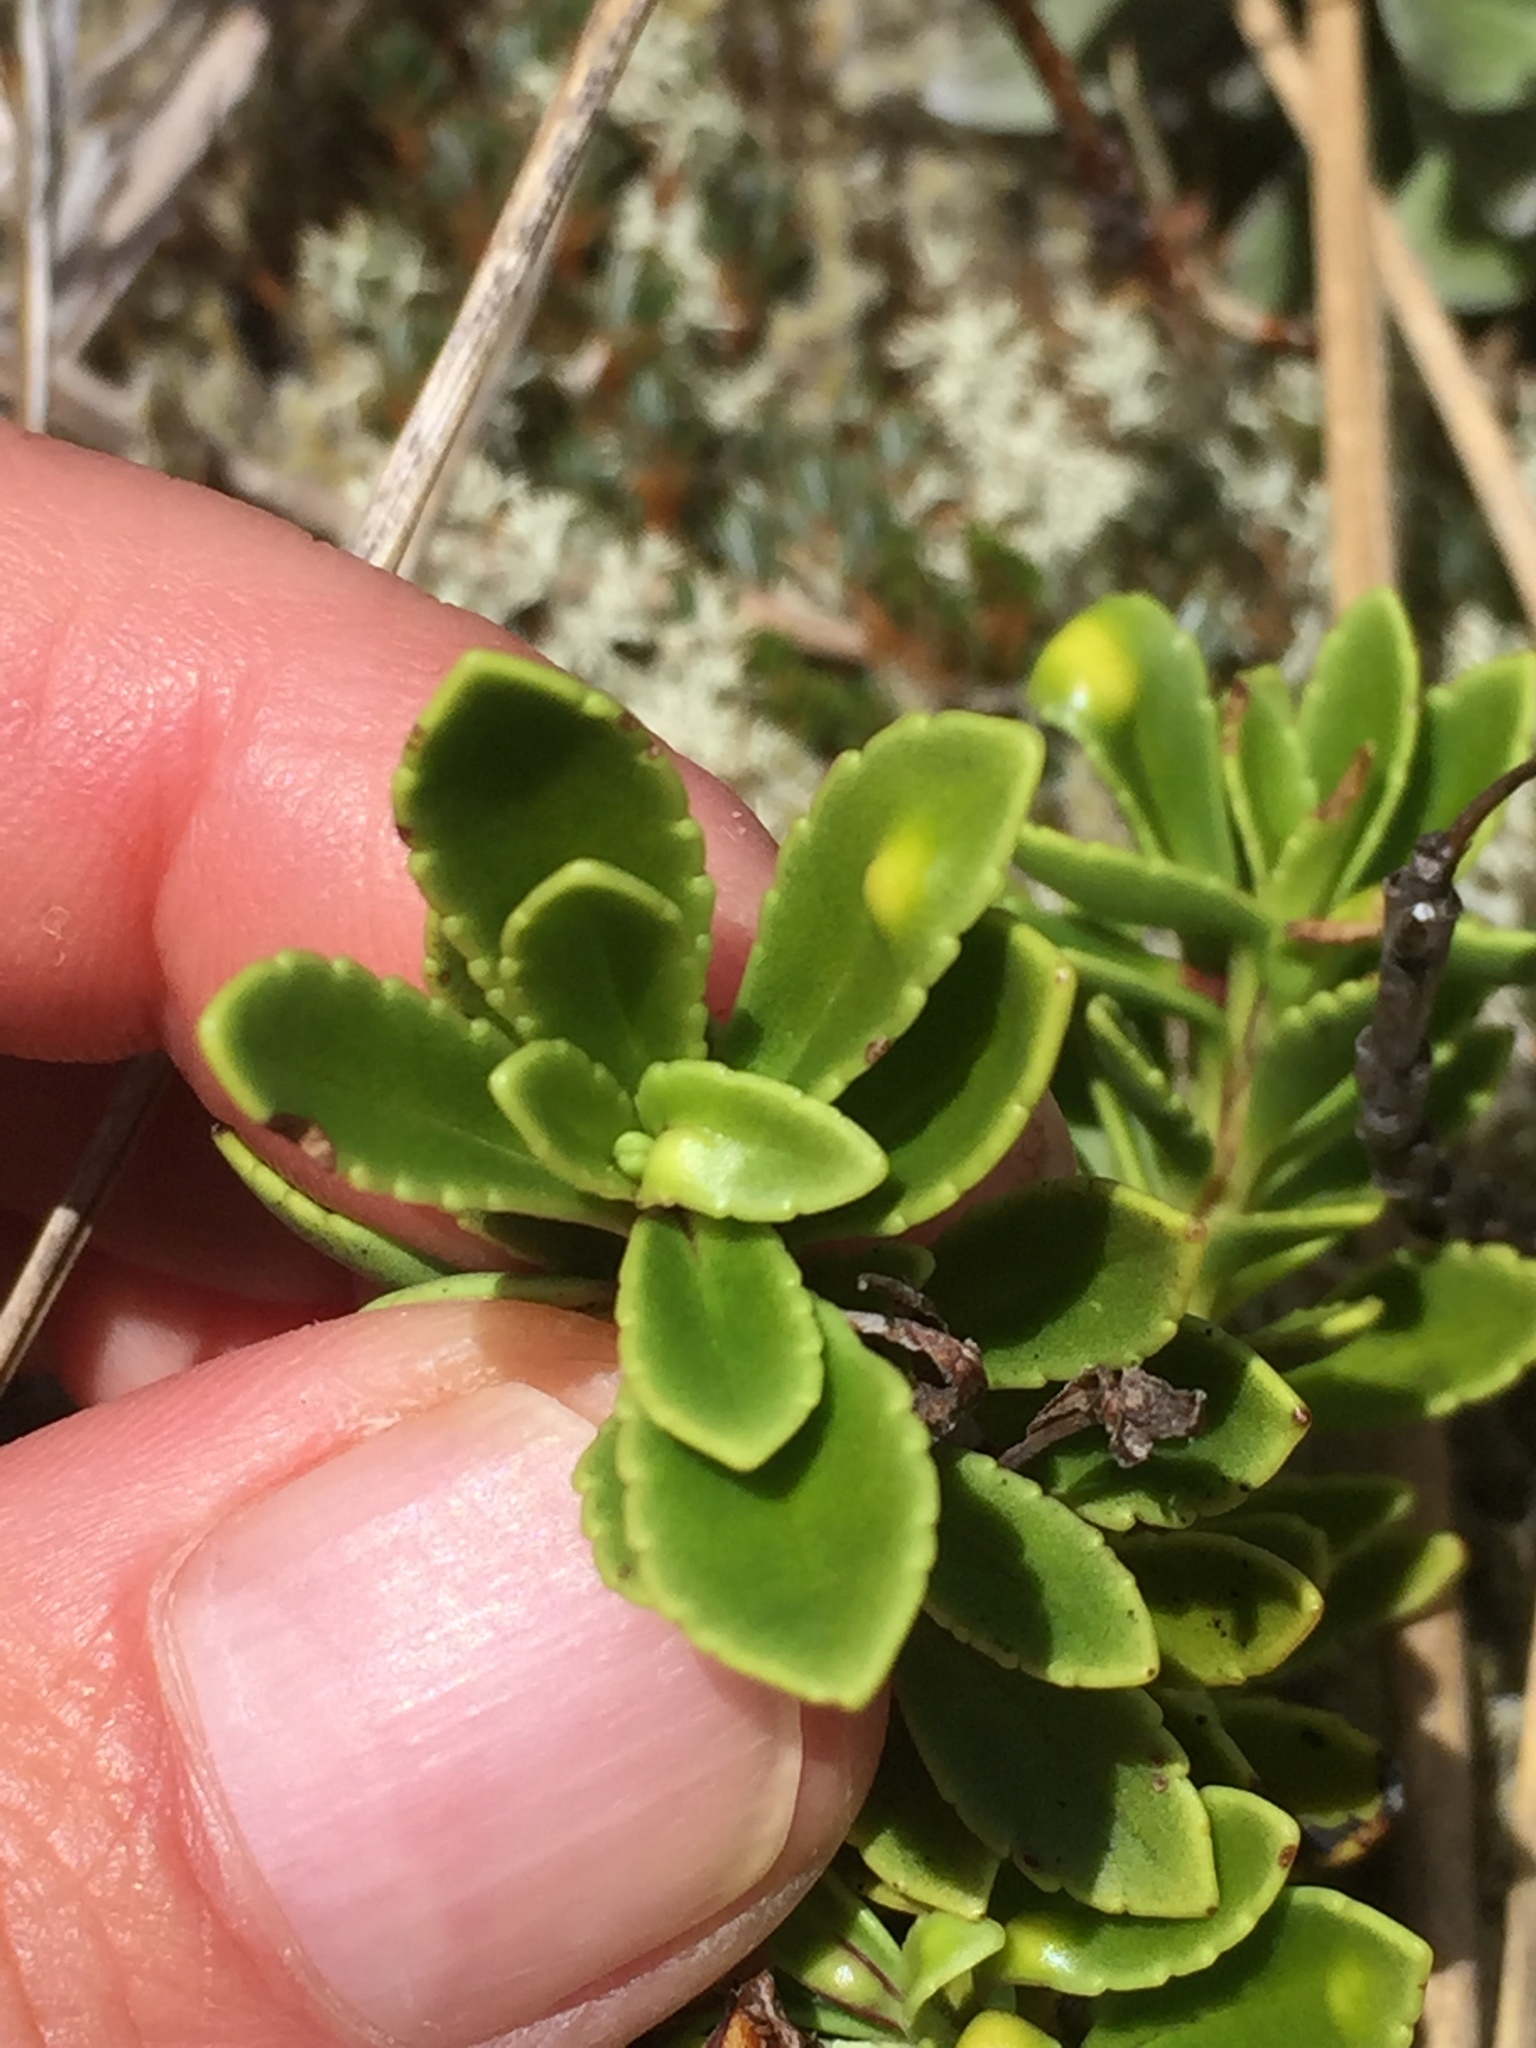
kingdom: Plantae
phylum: Tracheophyta
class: Magnoliopsida
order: Lamiales
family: Plantaginaceae
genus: Veronica
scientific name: Veronica macrantha
